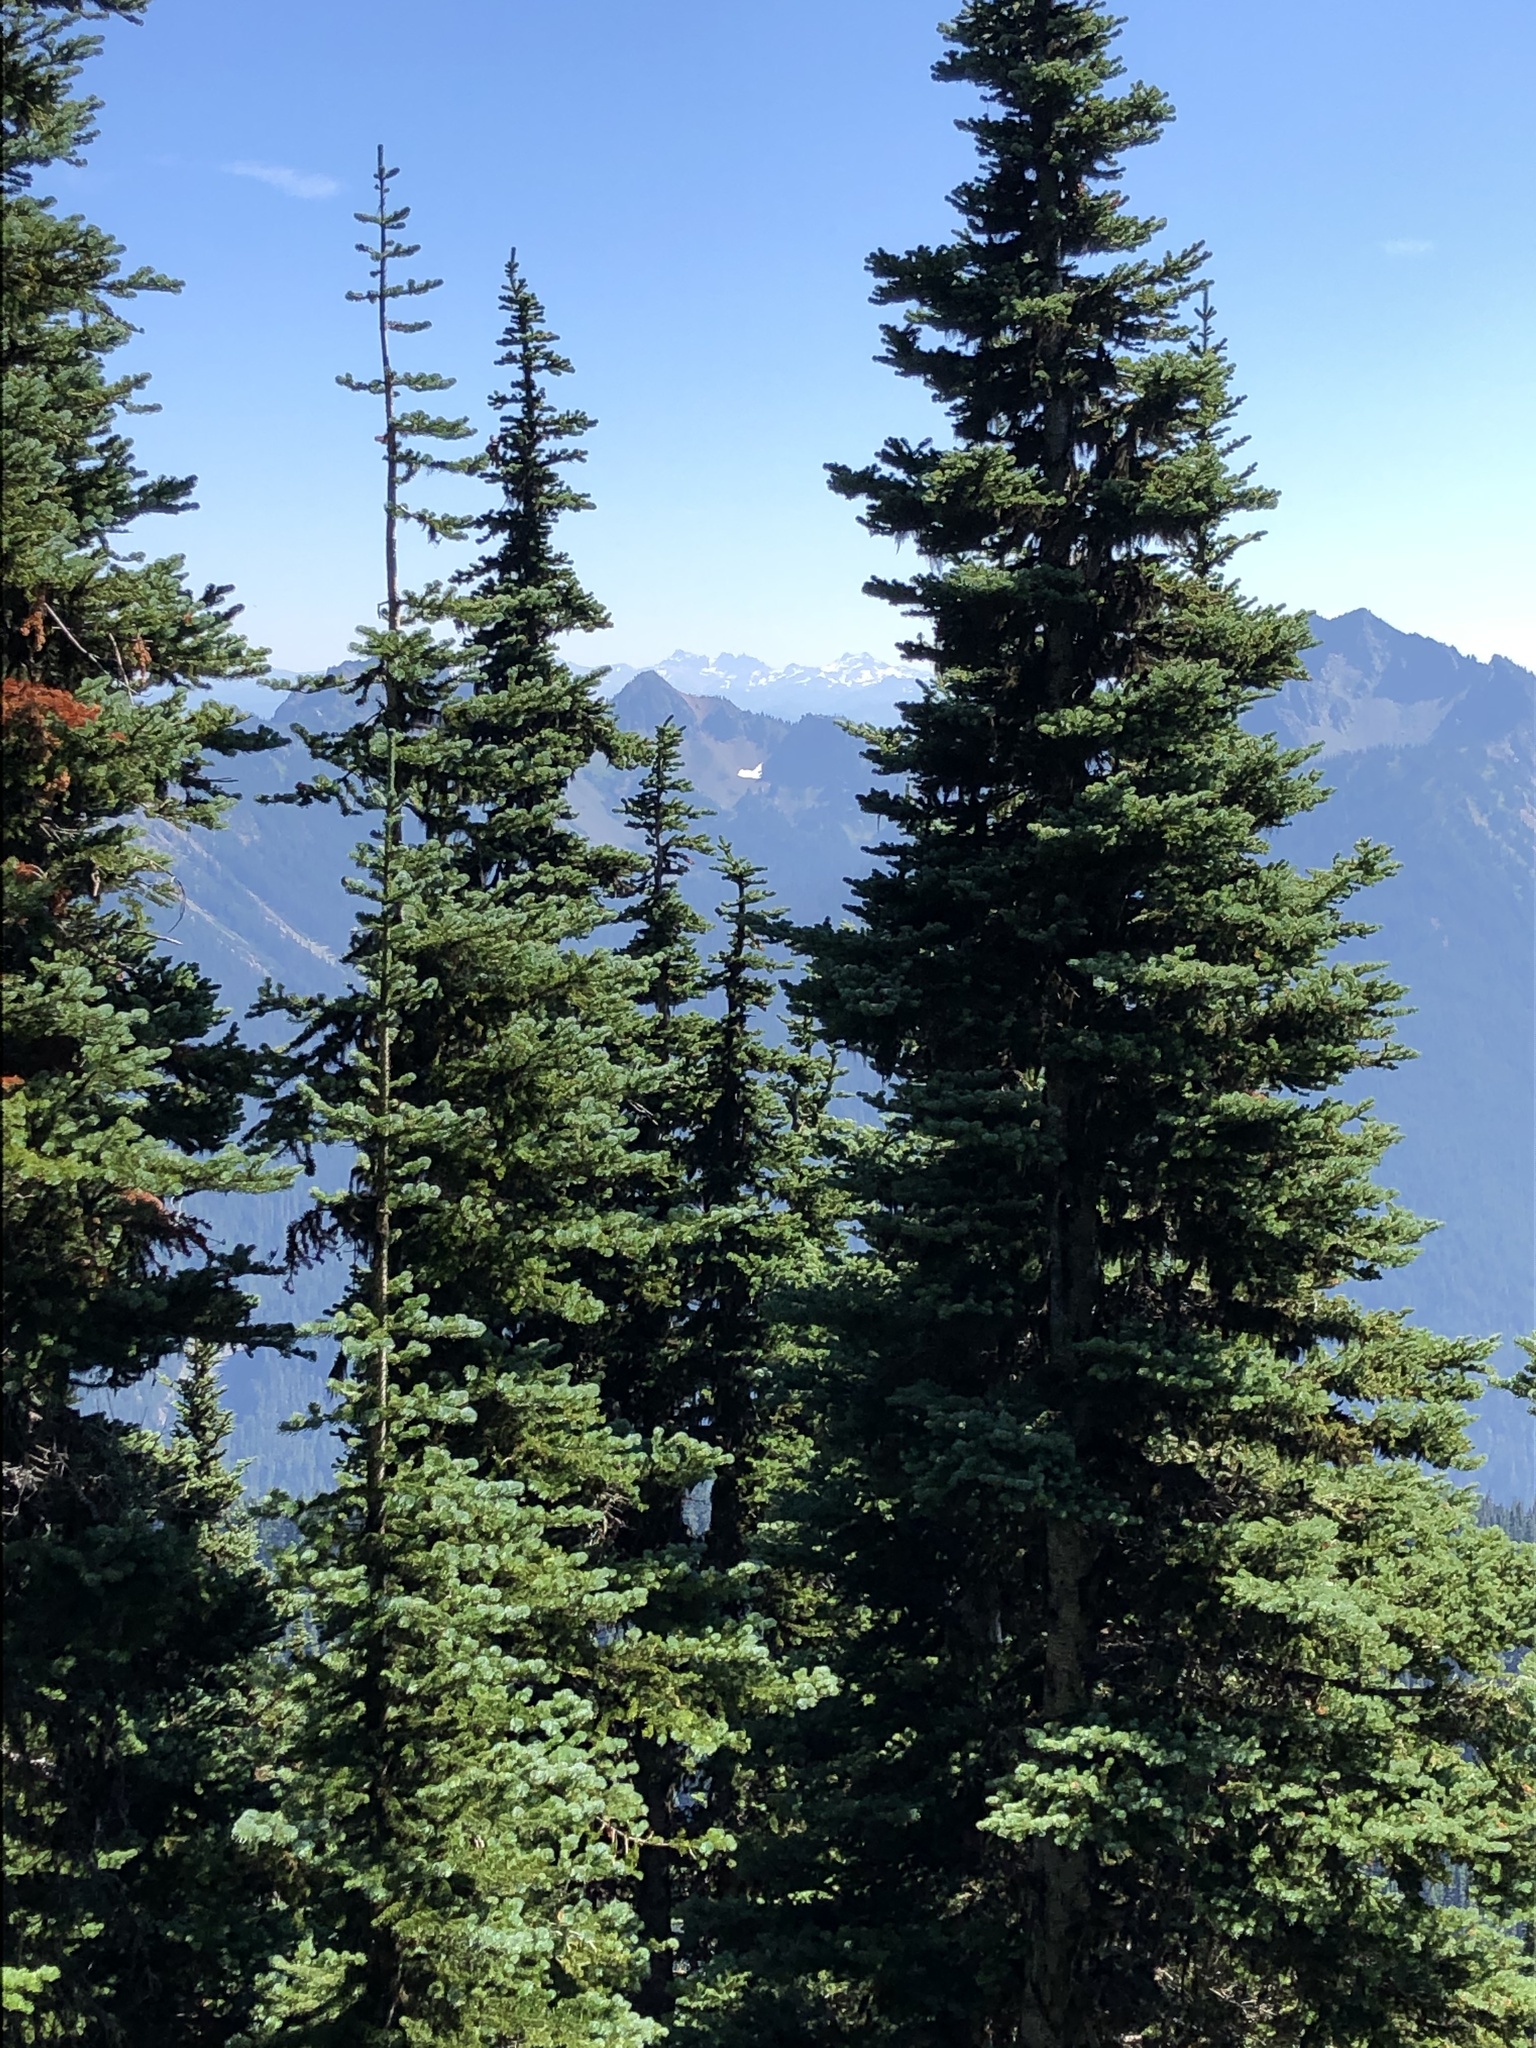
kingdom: Plantae
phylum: Tracheophyta
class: Pinopsida
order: Pinales
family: Pinaceae
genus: Abies
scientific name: Abies lasiocarpa
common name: Subalpine fir
